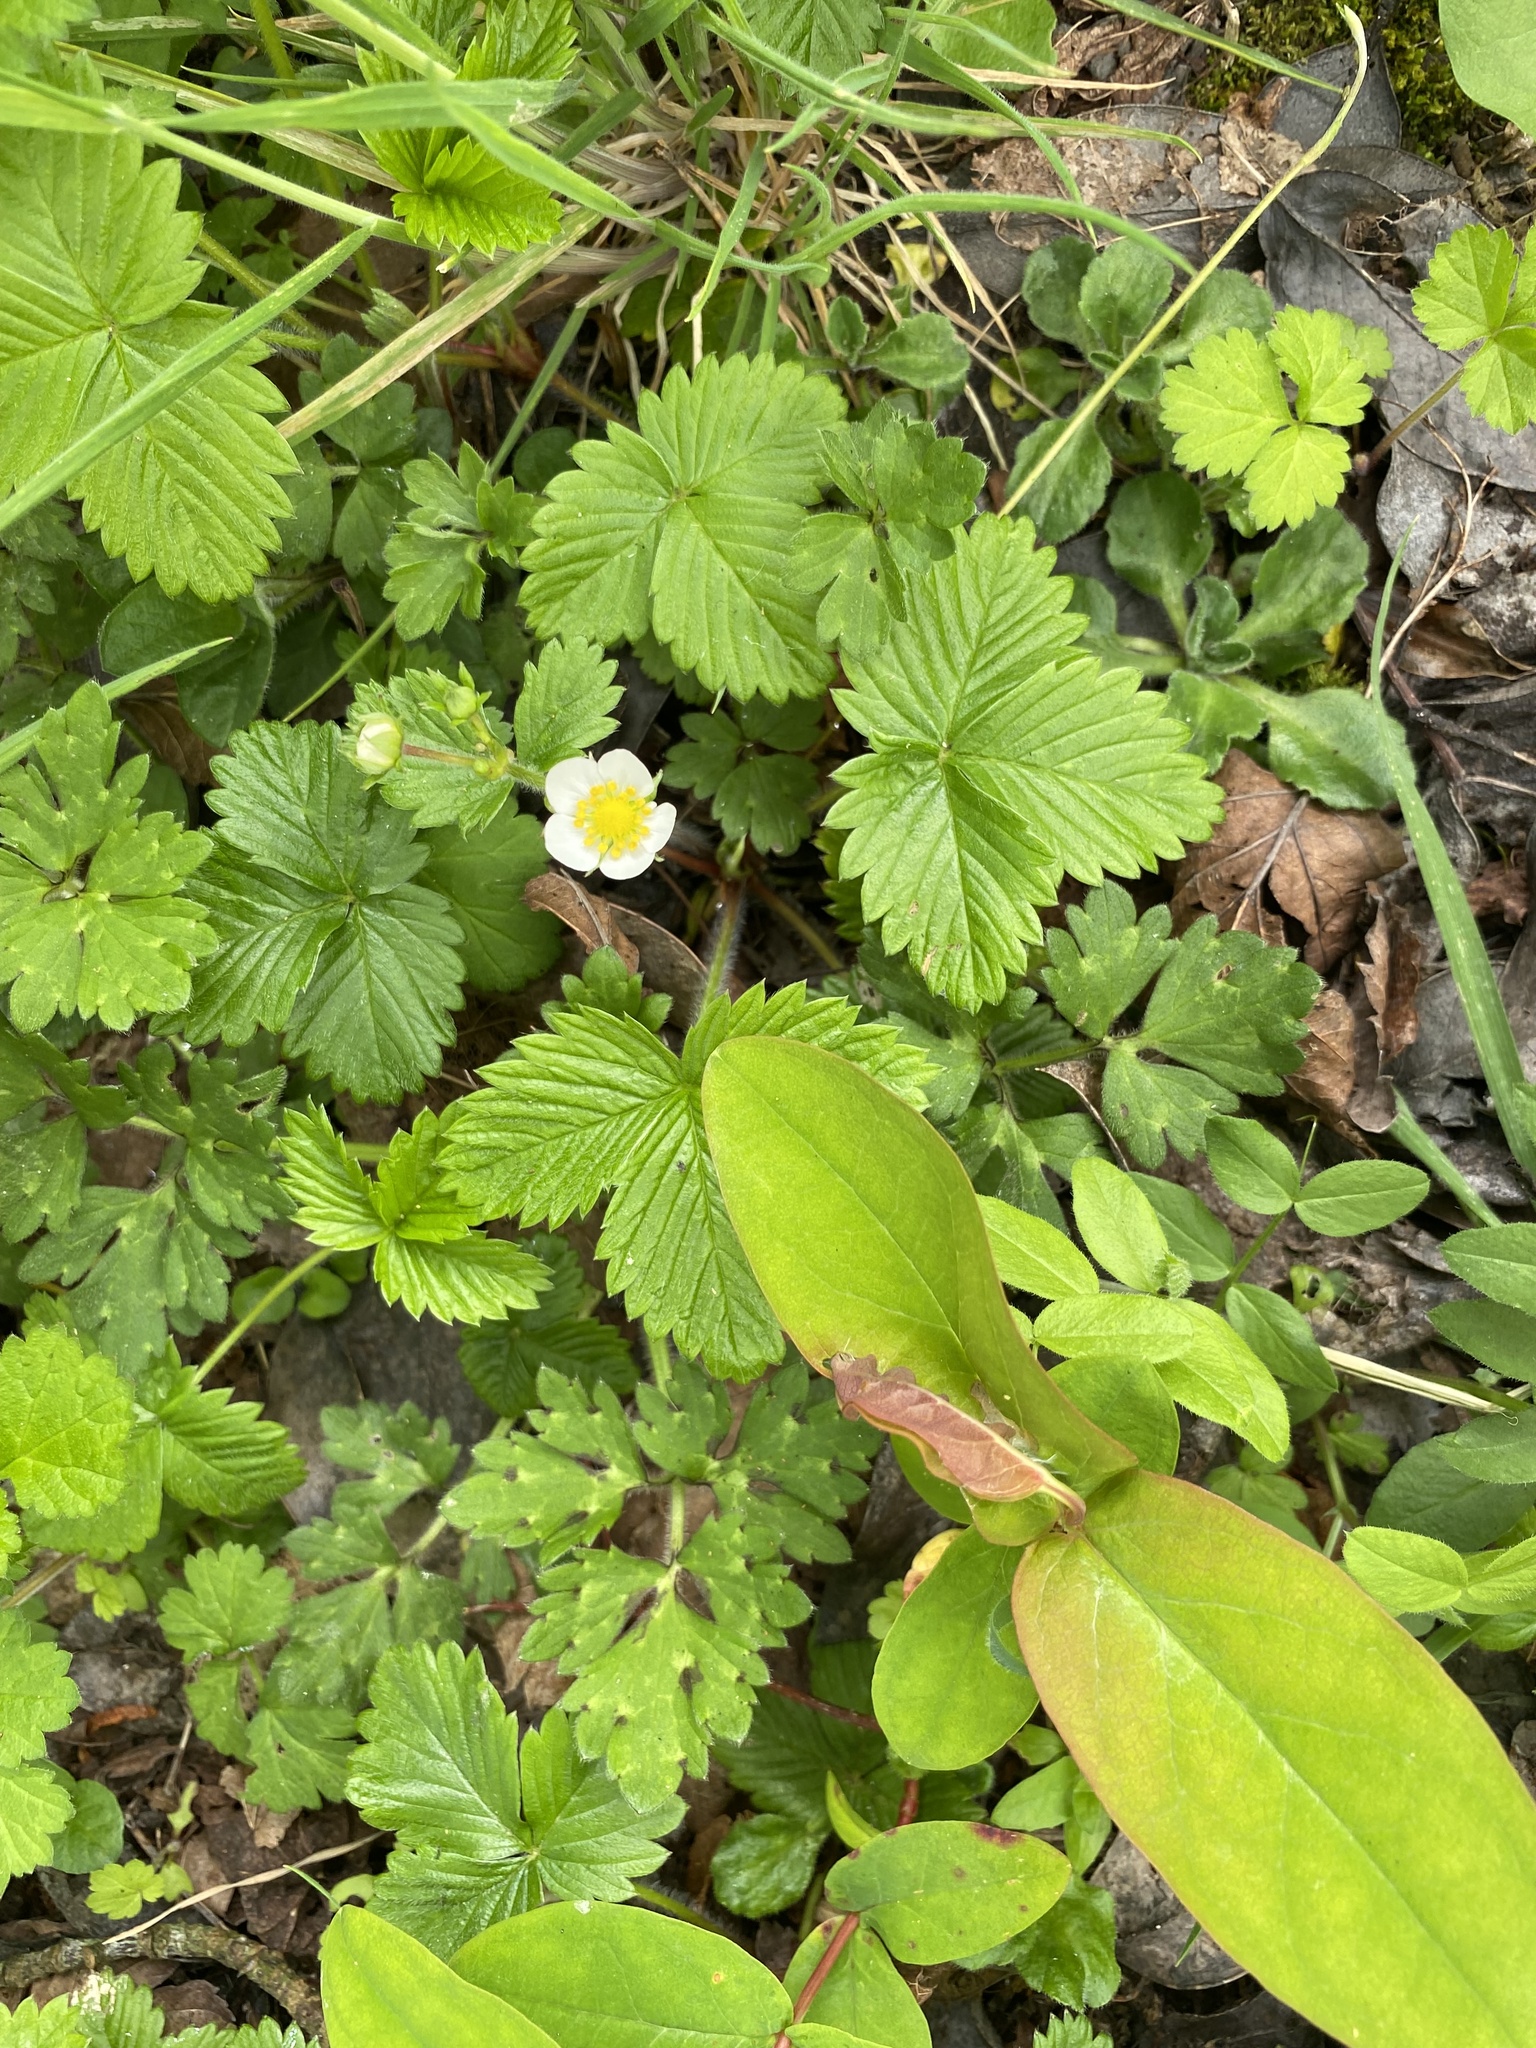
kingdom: Plantae
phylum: Tracheophyta
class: Magnoliopsida
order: Rosales
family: Rosaceae
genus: Fragaria
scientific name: Fragaria vesca
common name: Wild strawberry
